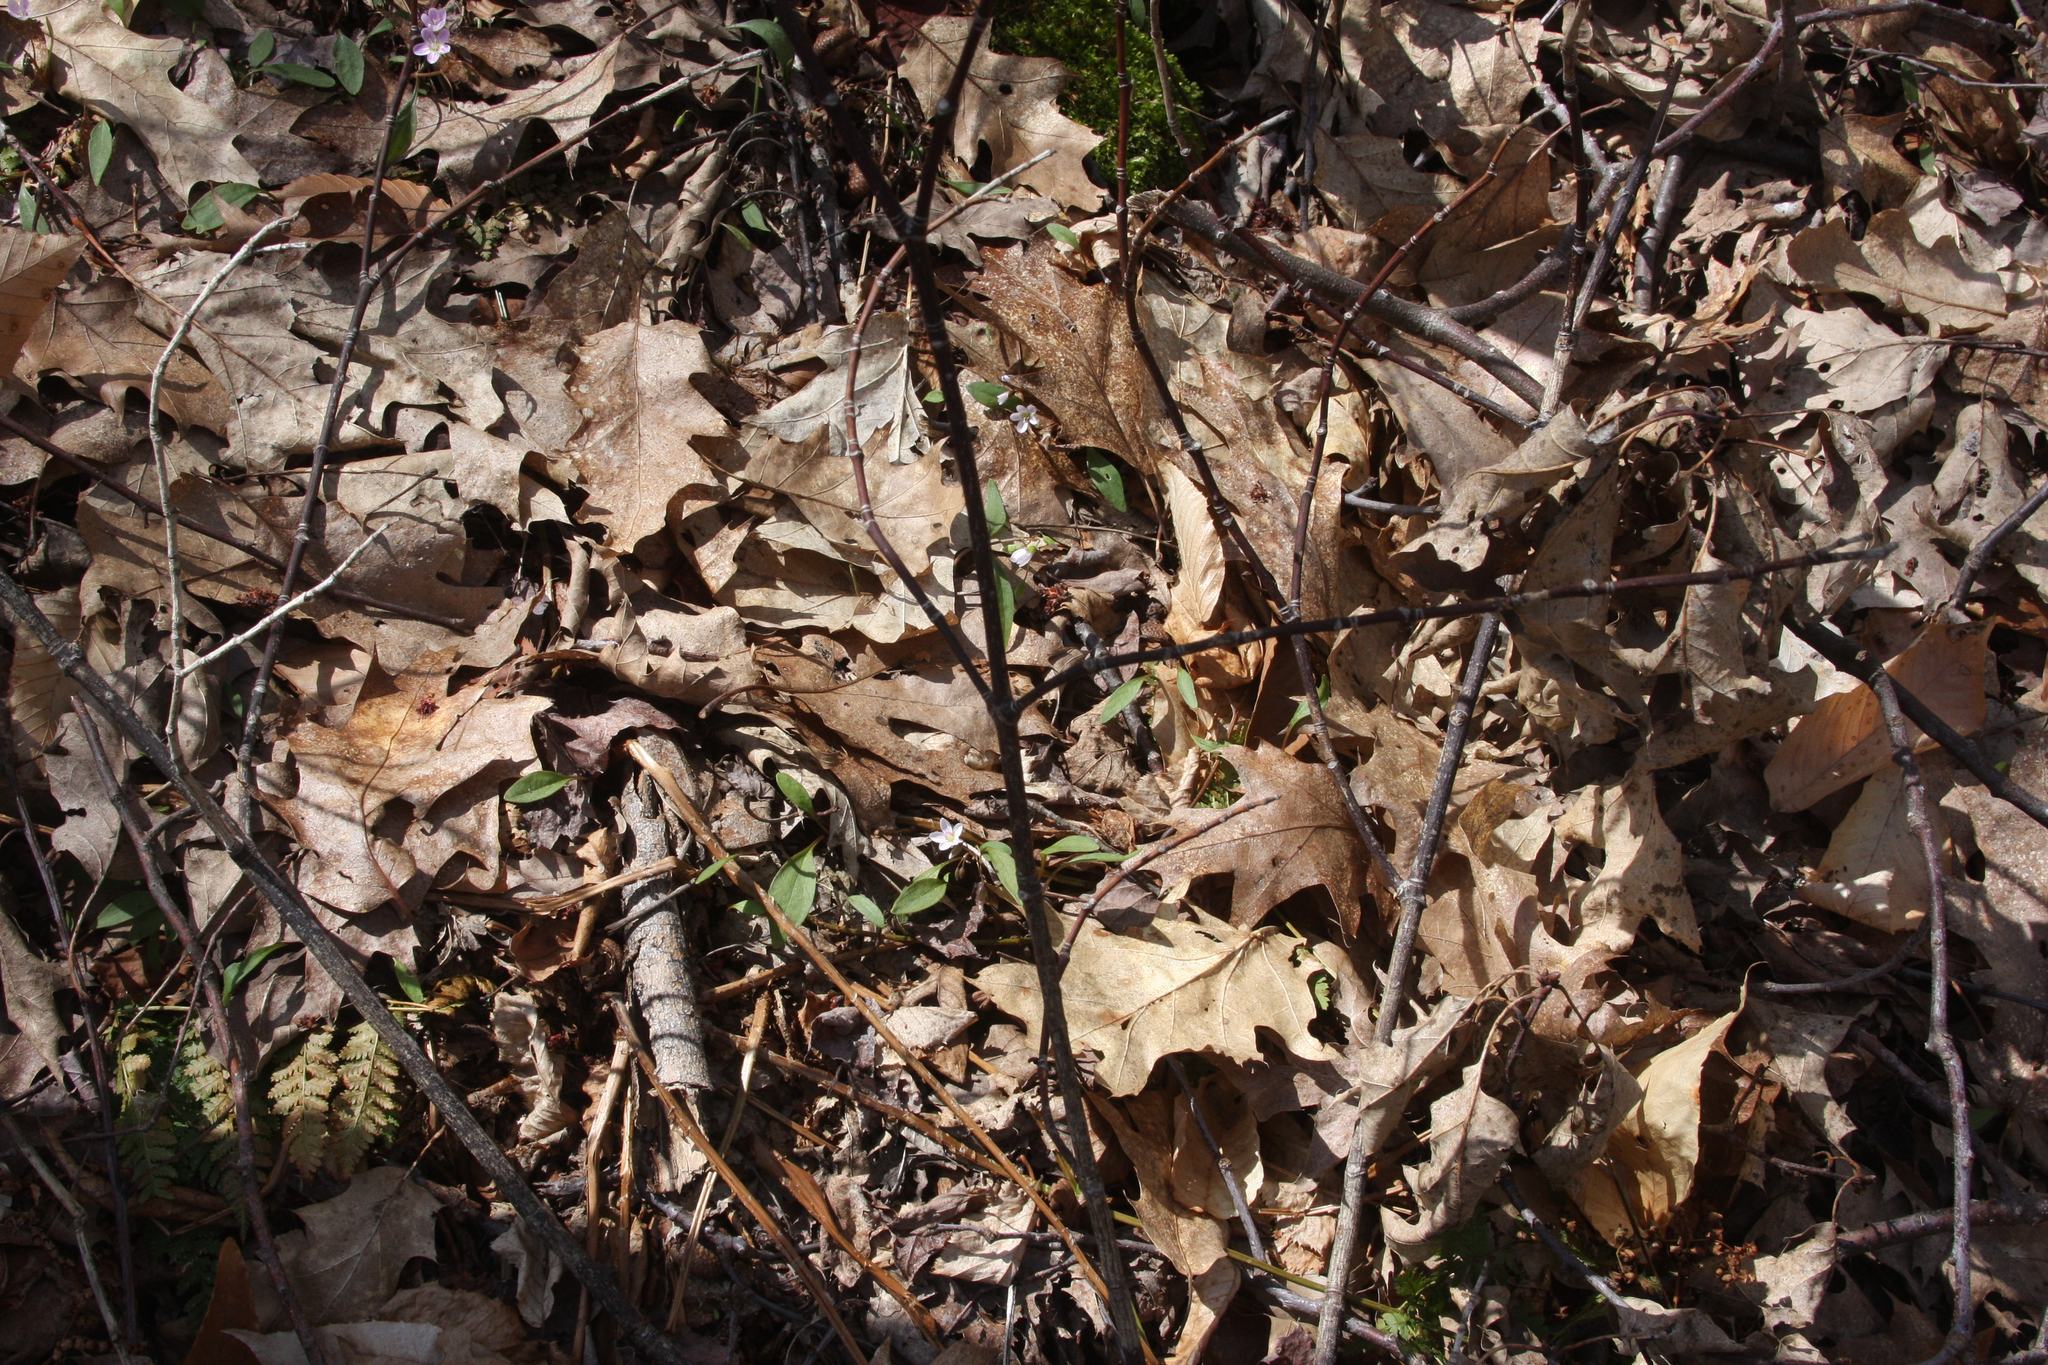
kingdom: Plantae
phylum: Tracheophyta
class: Magnoliopsida
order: Caryophyllales
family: Montiaceae
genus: Claytonia
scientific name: Claytonia caroliniana
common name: Carolina spring beauty
